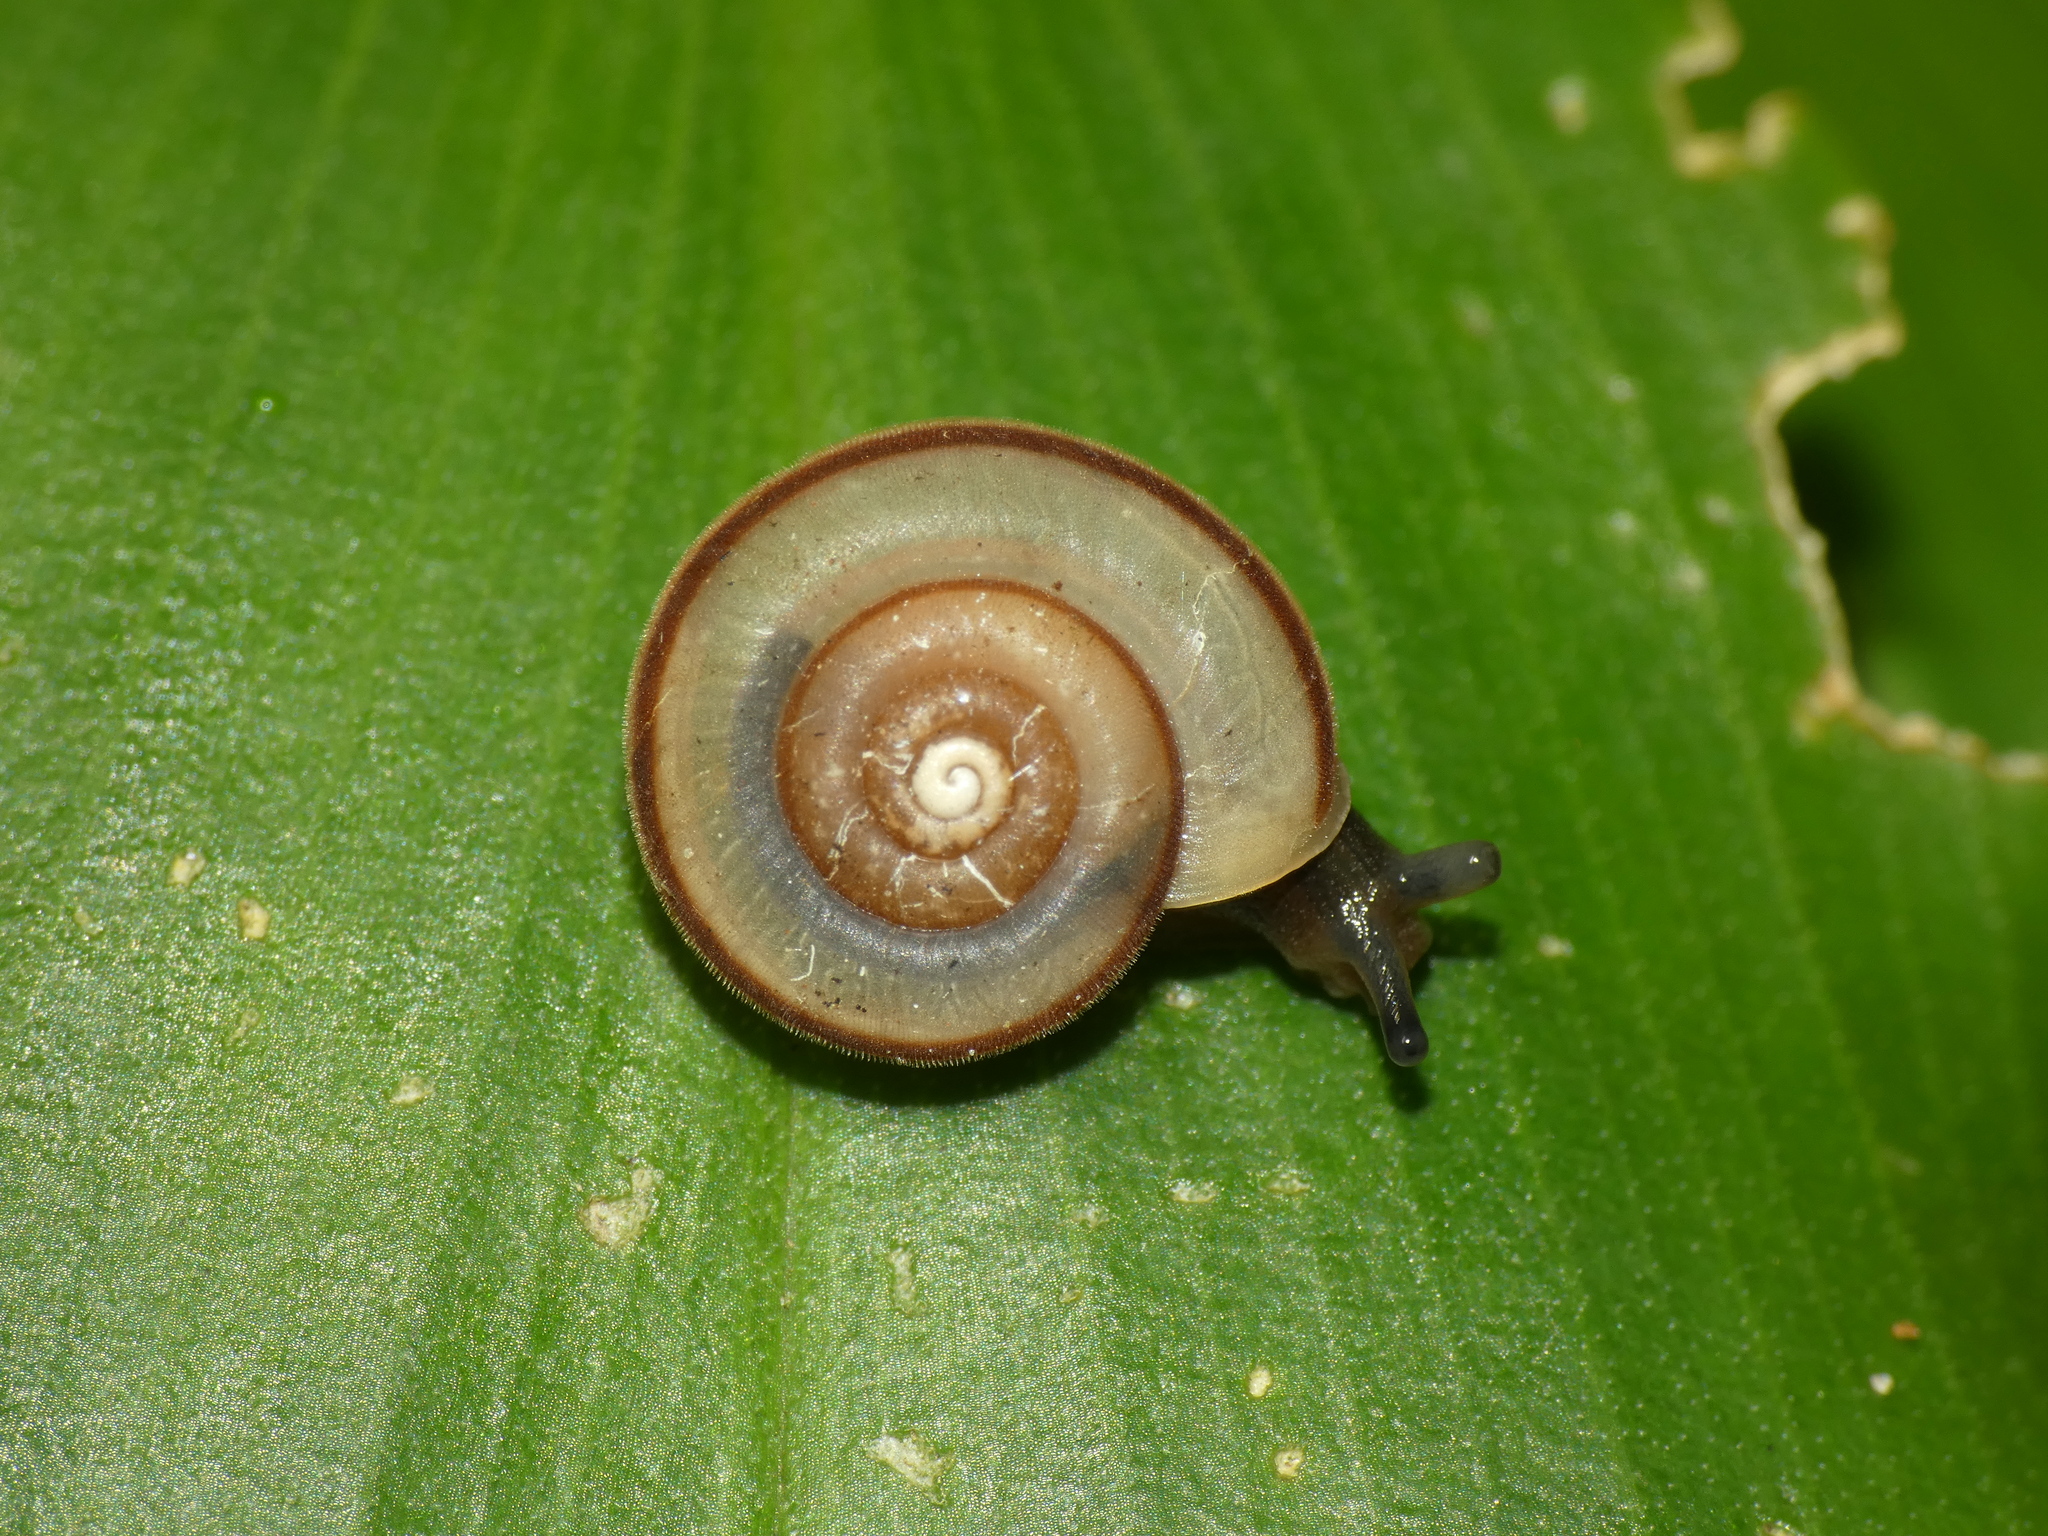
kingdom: Animalia
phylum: Mollusca
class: Gastropoda
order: Stylommatophora
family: Camaenidae
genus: Protolinitis
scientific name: Protolinitis terriirwinae
